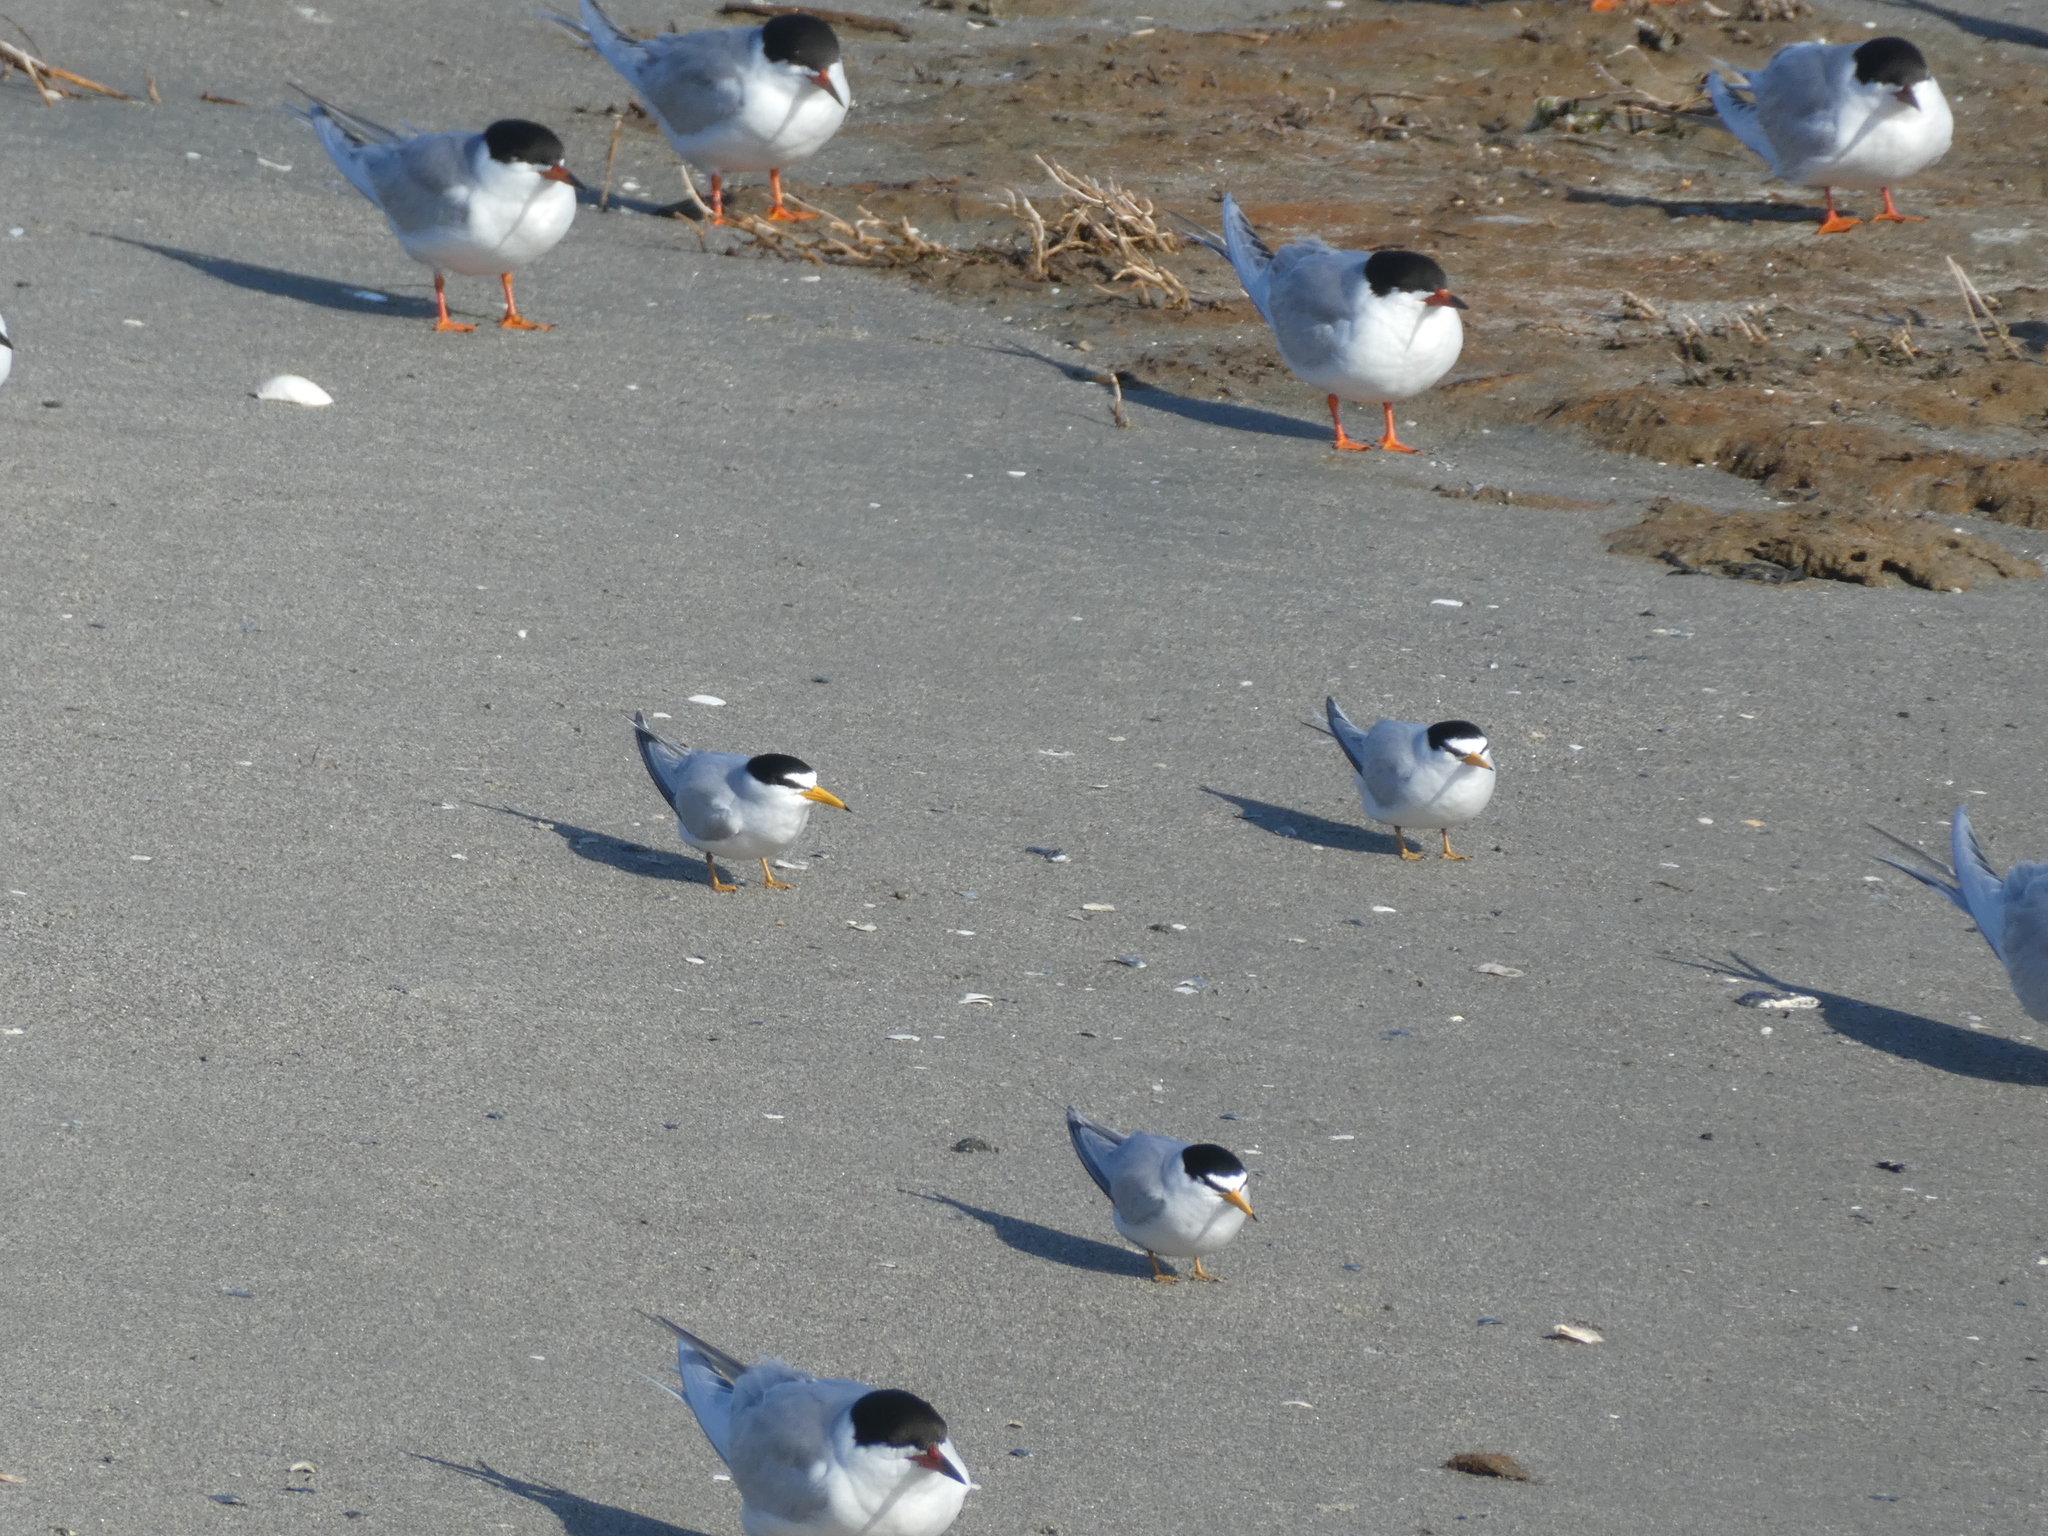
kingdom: Animalia
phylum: Chordata
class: Aves
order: Charadriiformes
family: Laridae
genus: Sternula
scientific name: Sternula antillarum
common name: Least tern
